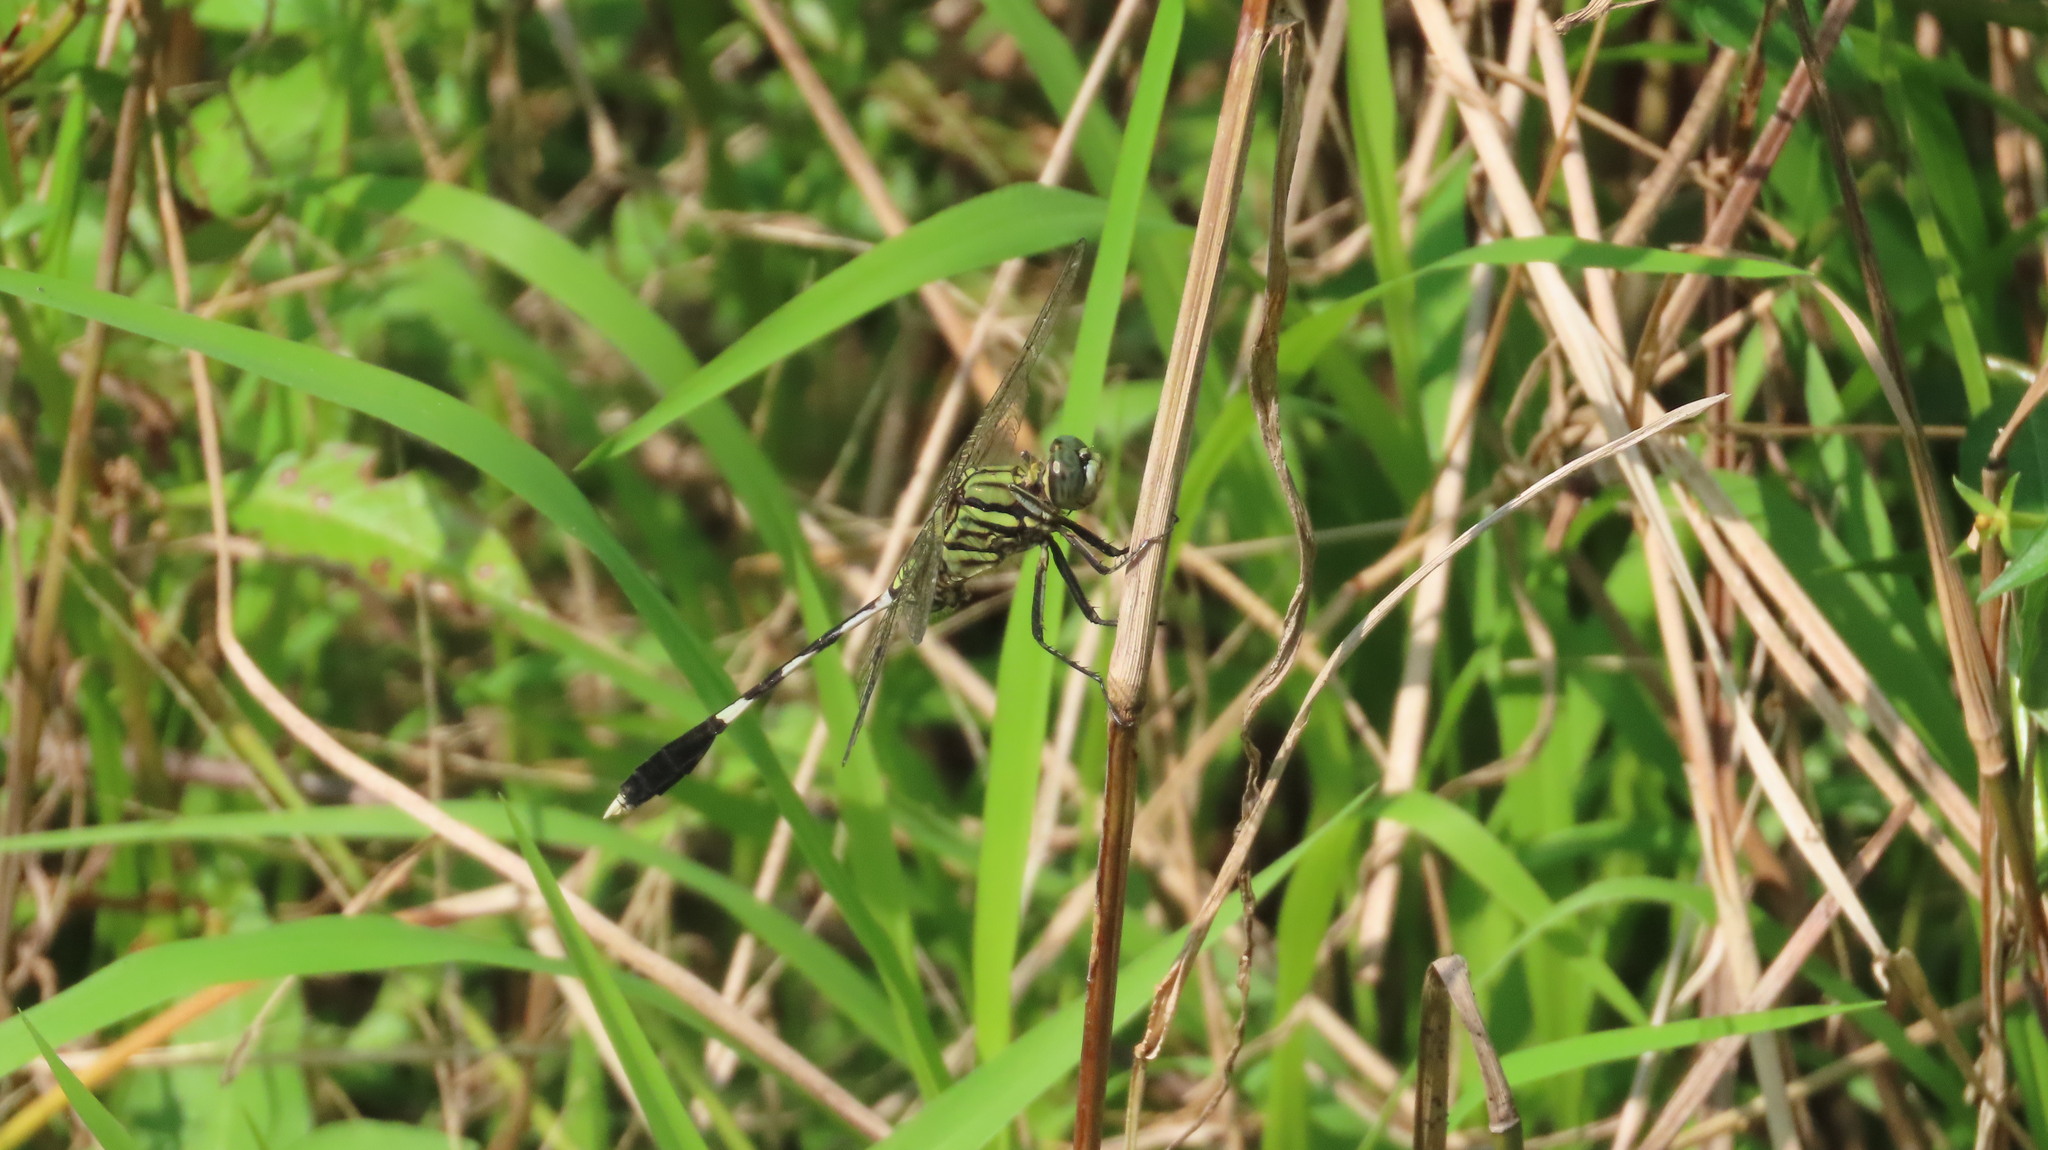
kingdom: Animalia
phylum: Arthropoda
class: Insecta
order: Odonata
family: Libellulidae
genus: Orthetrum
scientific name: Orthetrum sabina
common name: Slender skimmer
